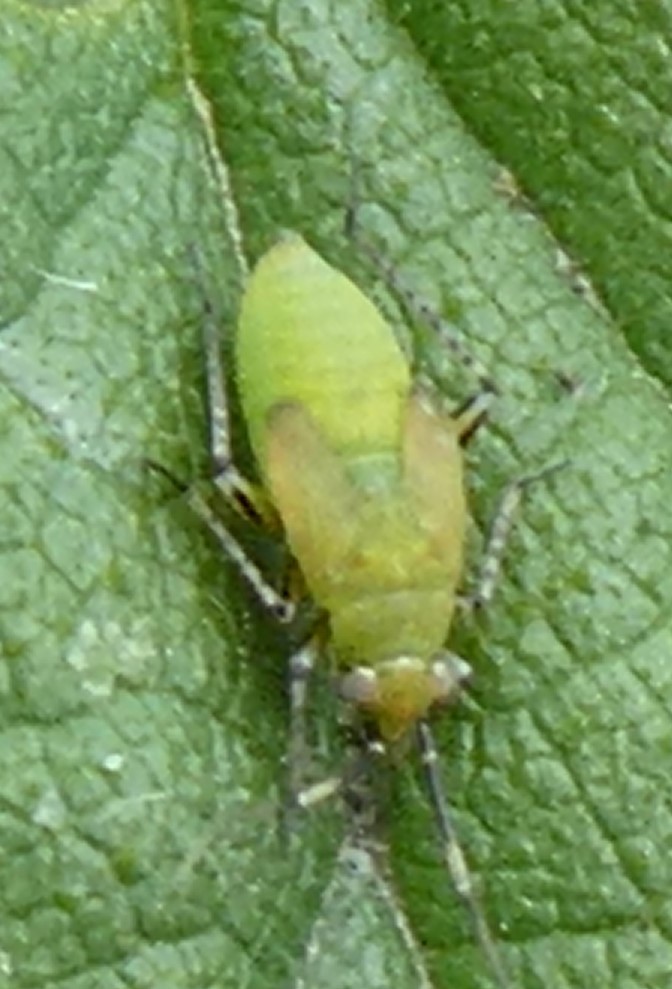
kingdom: Animalia
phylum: Arthropoda
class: Insecta
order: Hemiptera
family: Miridae
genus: Plagiognathus
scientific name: Plagiognathus arbustorum
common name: Plant bug
